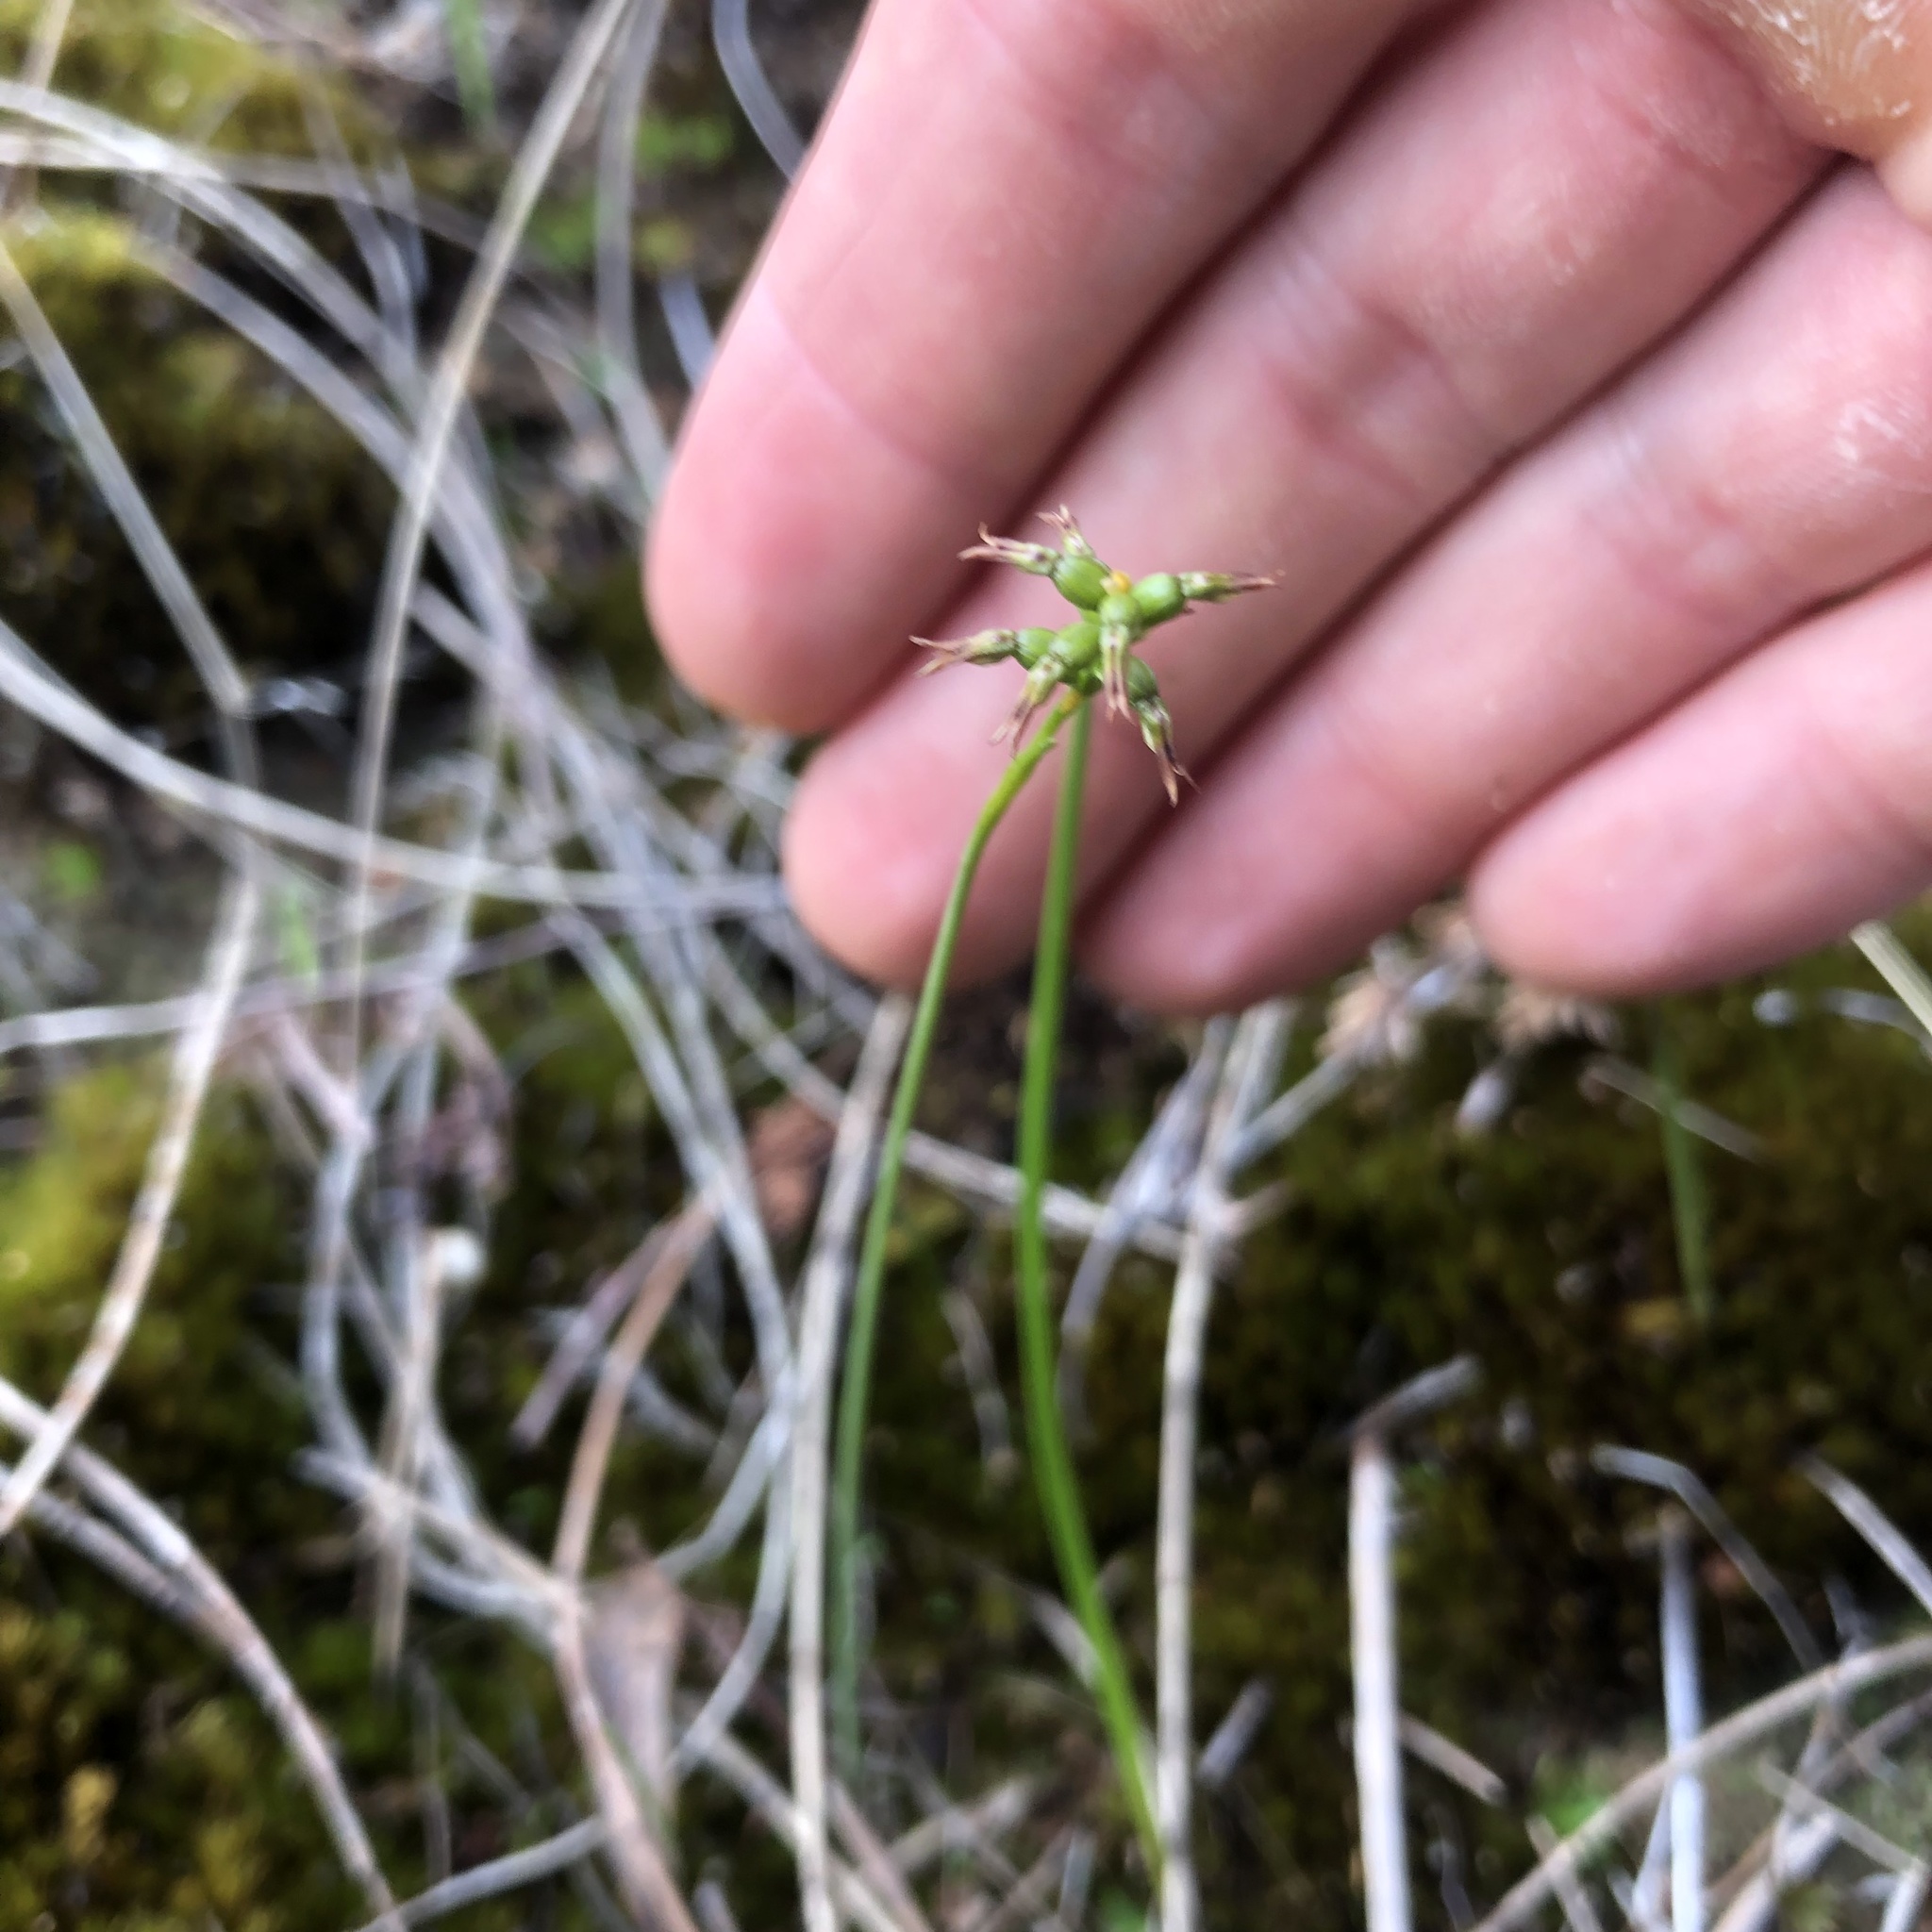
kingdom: Plantae
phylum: Tracheophyta
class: Liliopsida
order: Asparagales
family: Orchidaceae
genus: Genoplesium
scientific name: Genoplesium rufum
